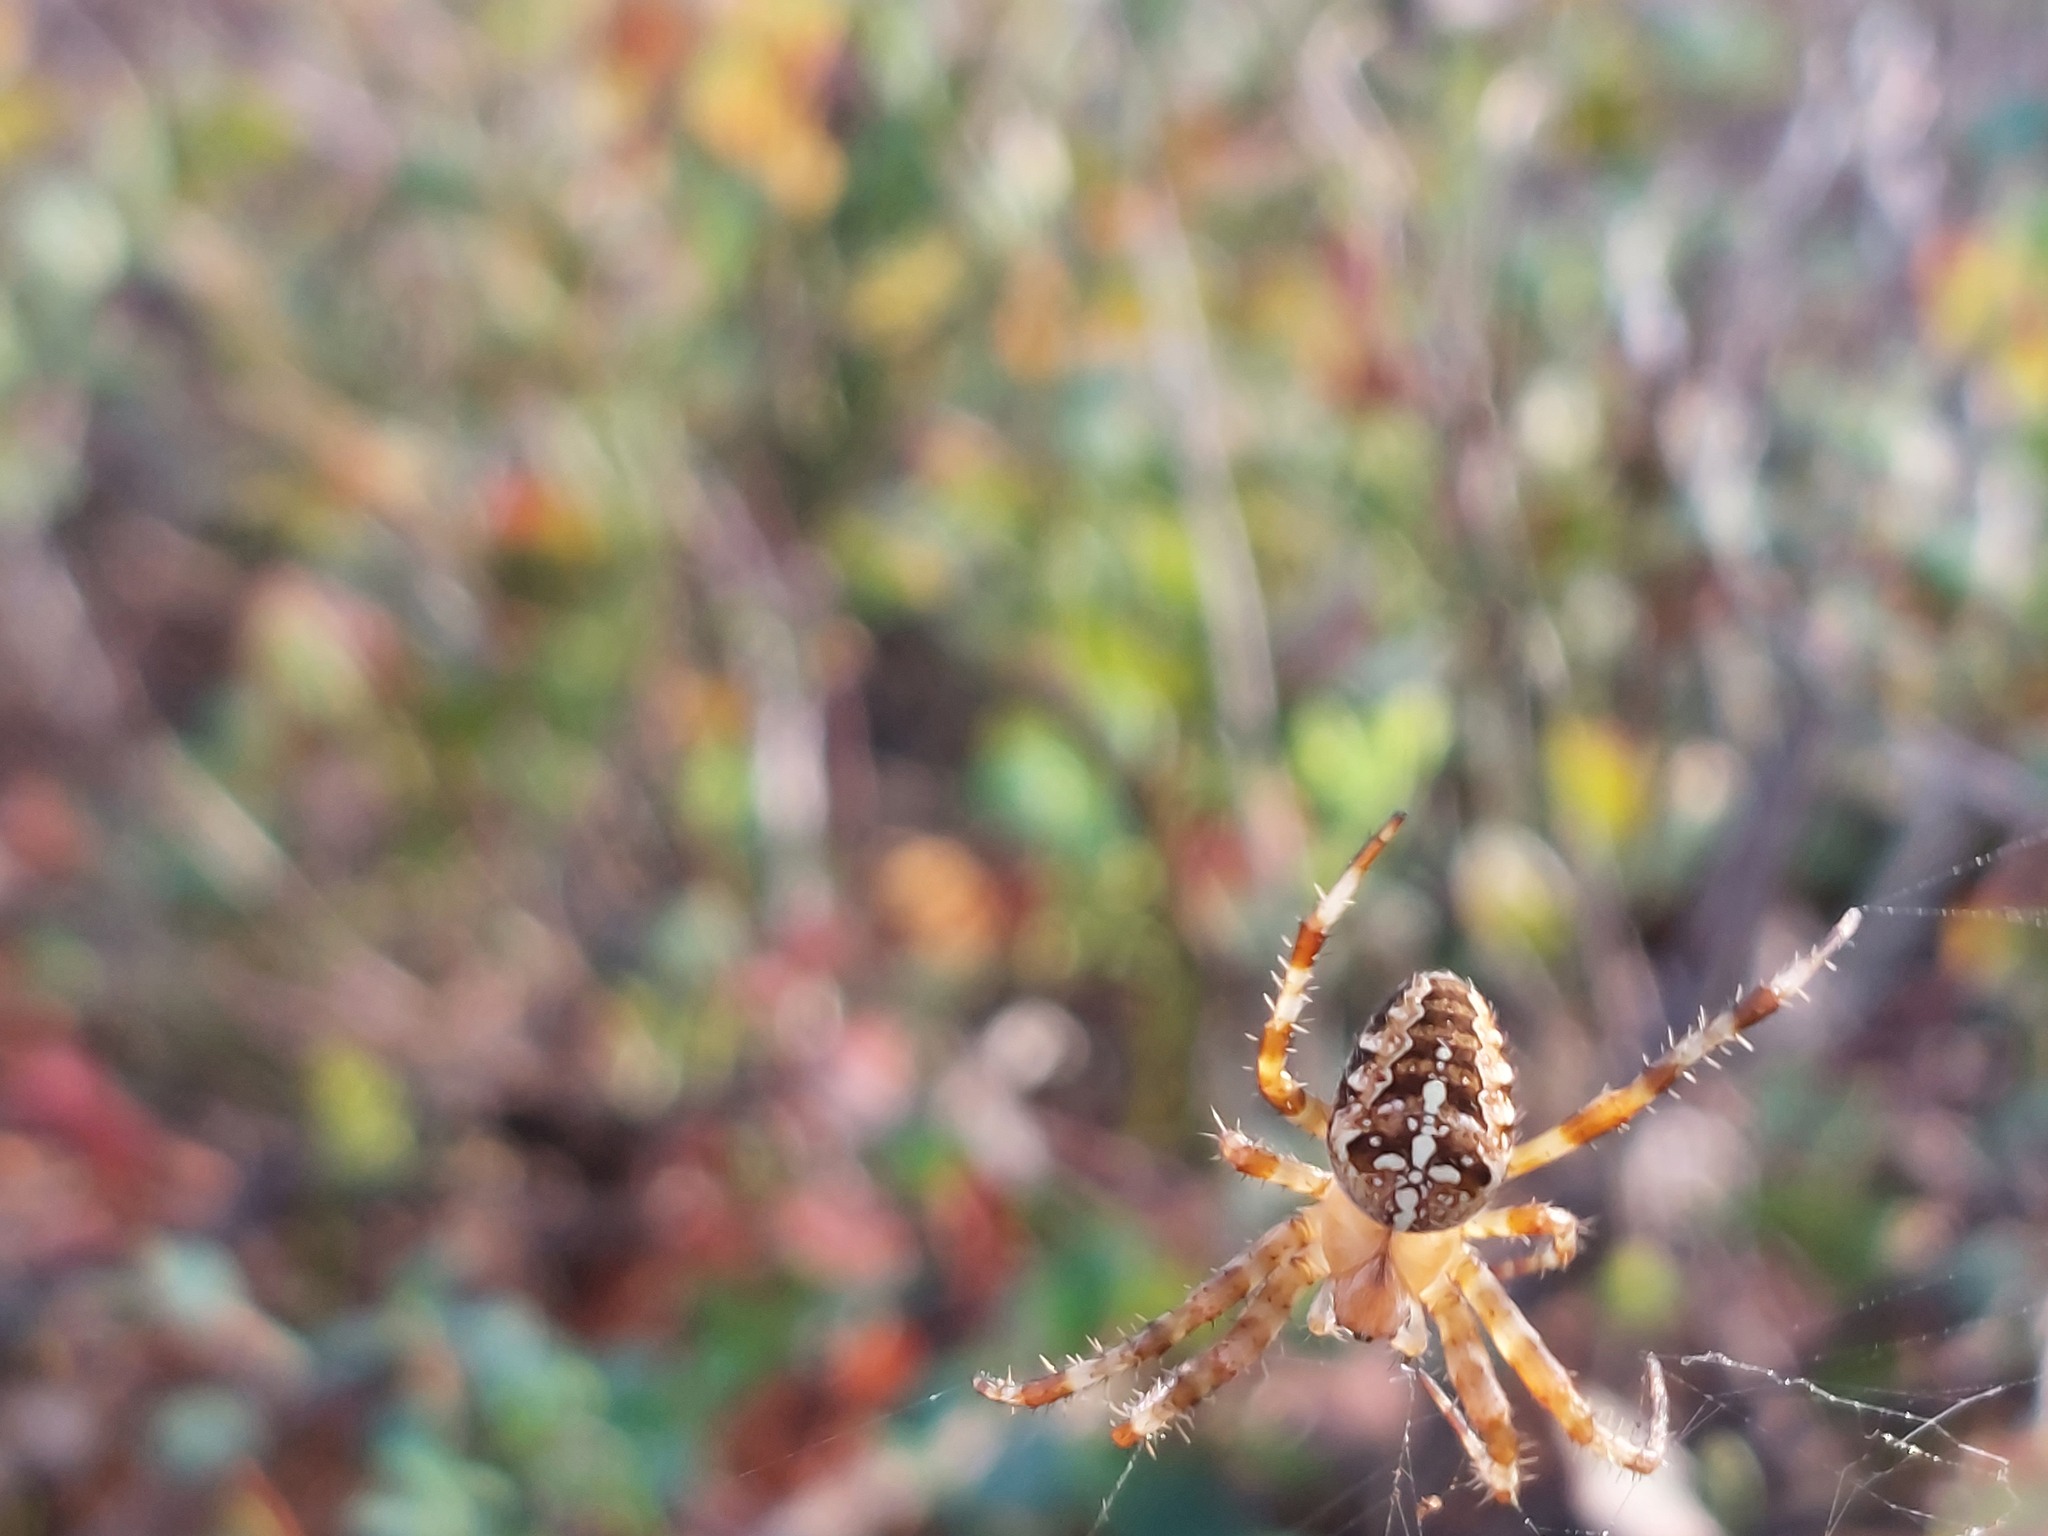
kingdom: Animalia
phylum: Arthropoda
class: Arachnida
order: Araneae
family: Araneidae
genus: Araneus
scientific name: Araneus diadematus
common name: Cross orbweaver
